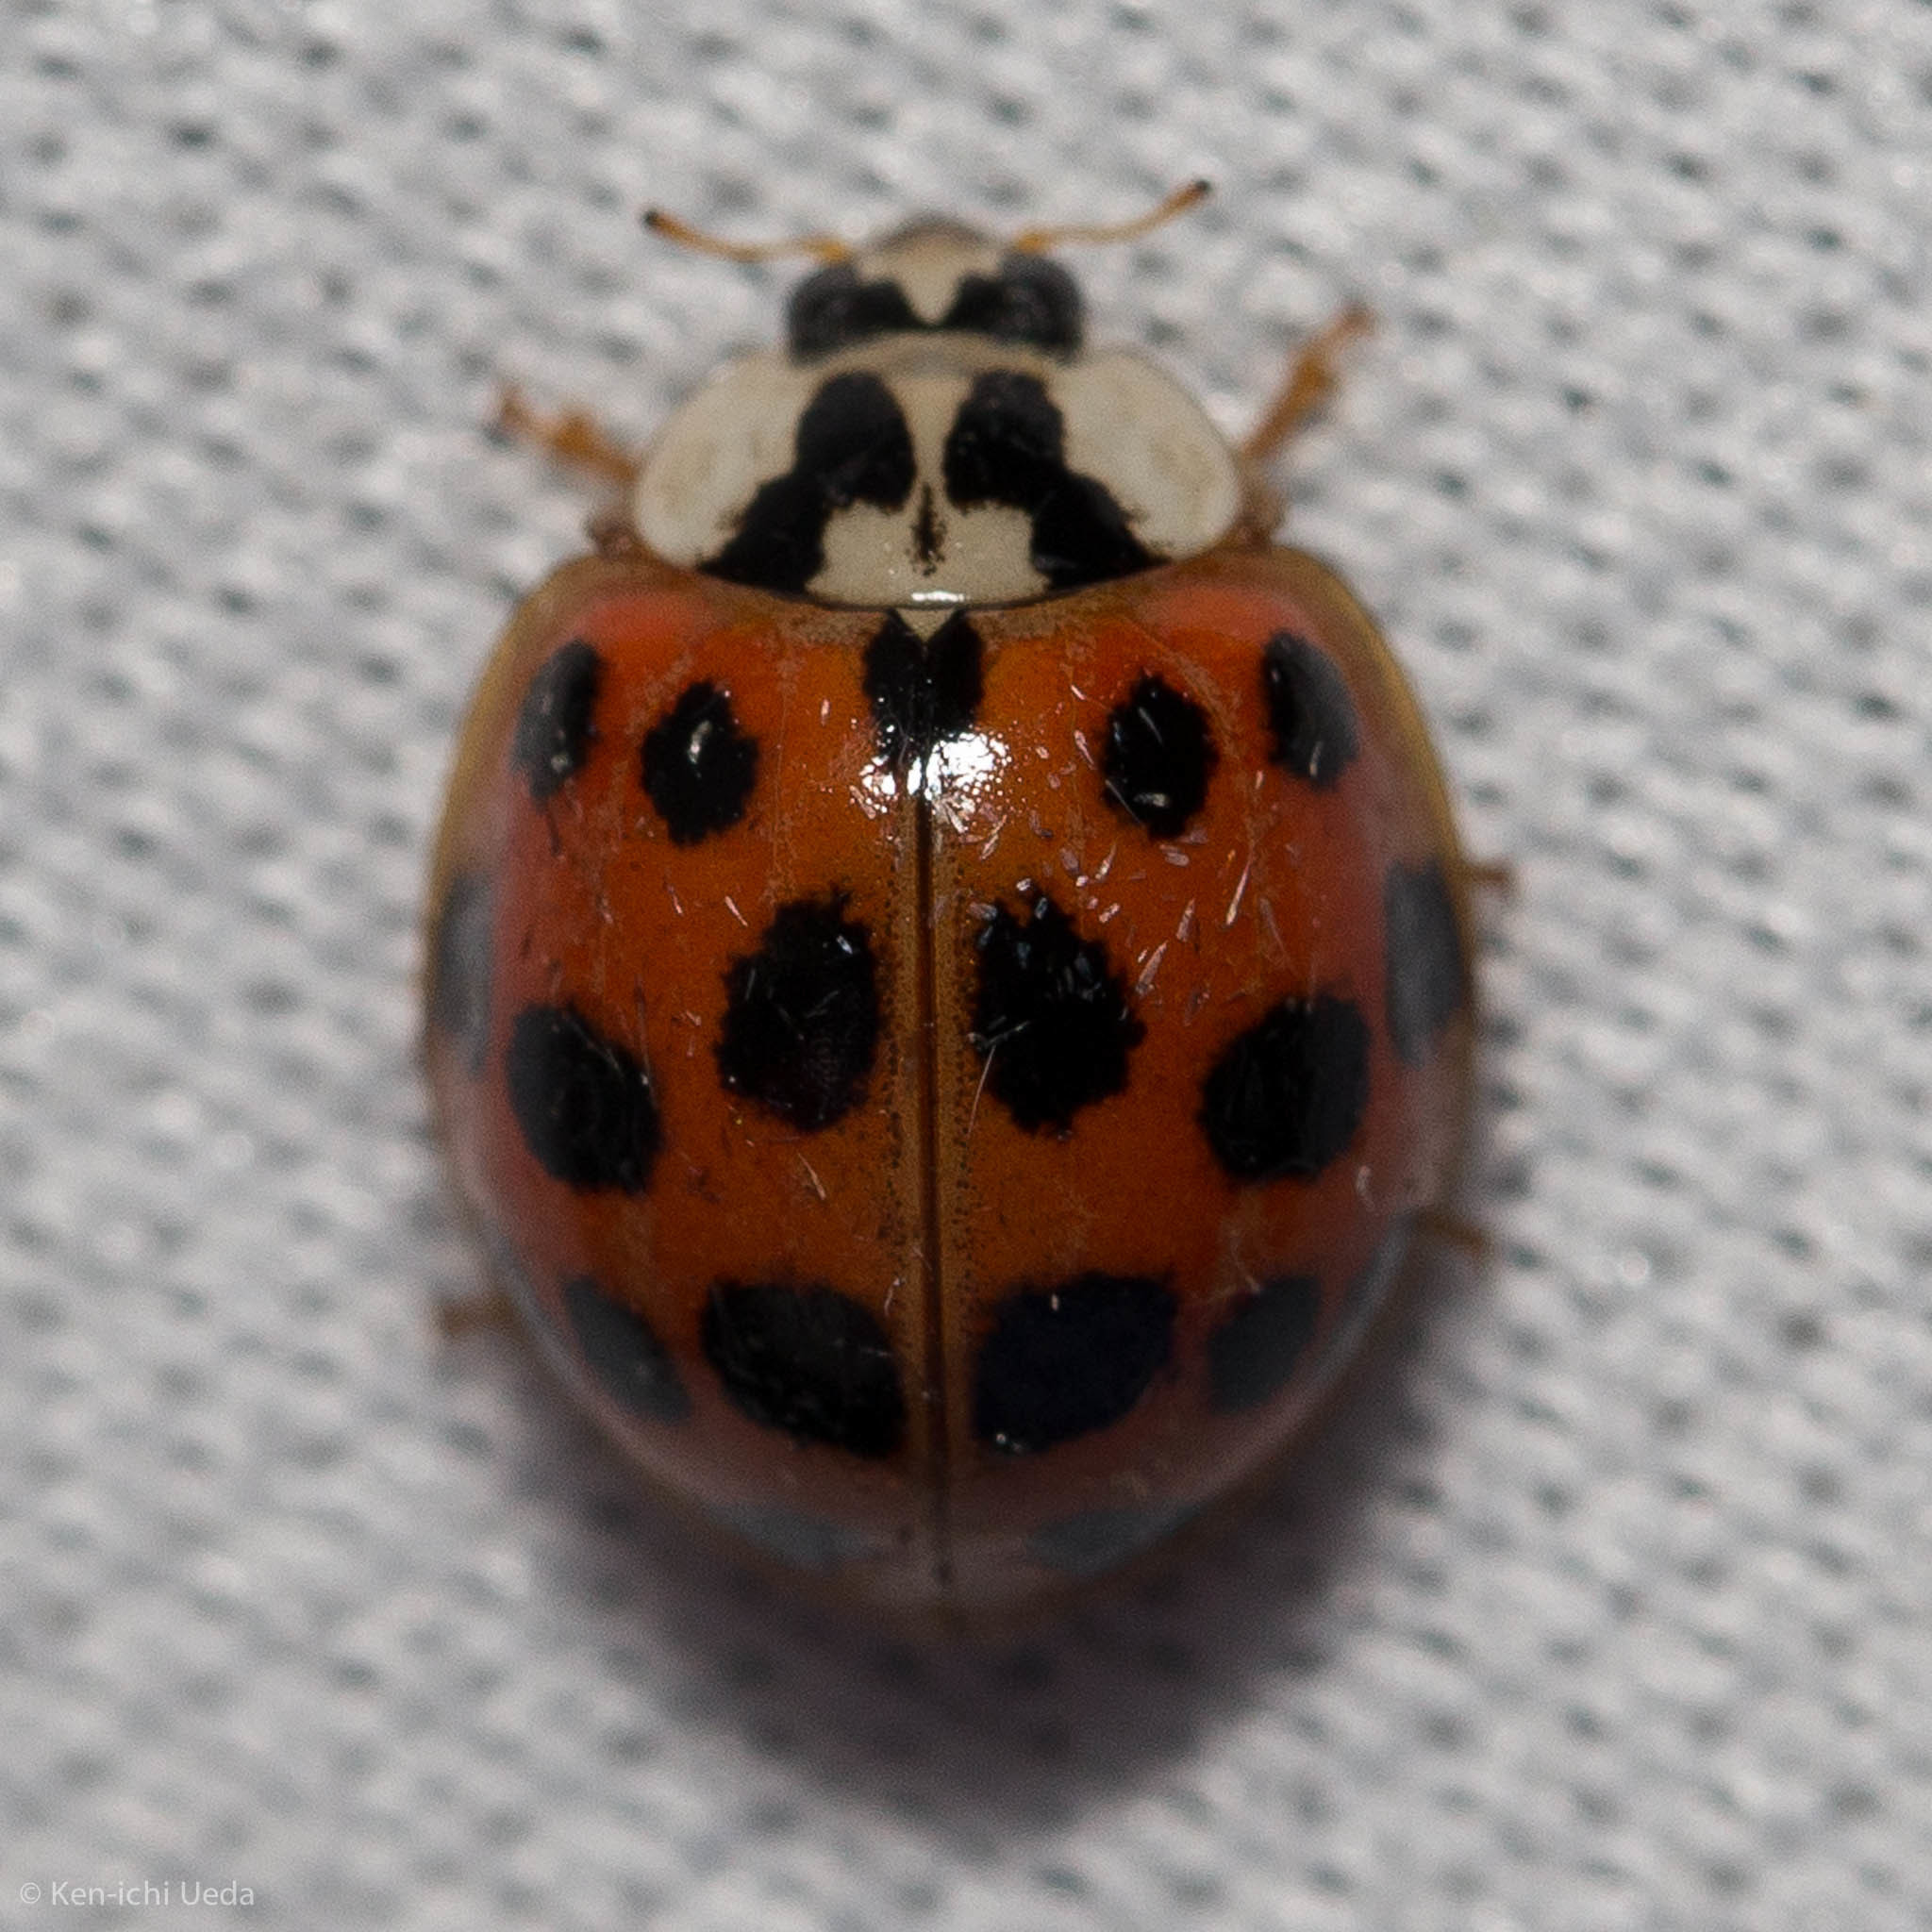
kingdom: Animalia
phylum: Arthropoda
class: Insecta
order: Coleoptera
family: Coccinellidae
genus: Harmonia
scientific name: Harmonia axyridis
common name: Harlequin ladybird
